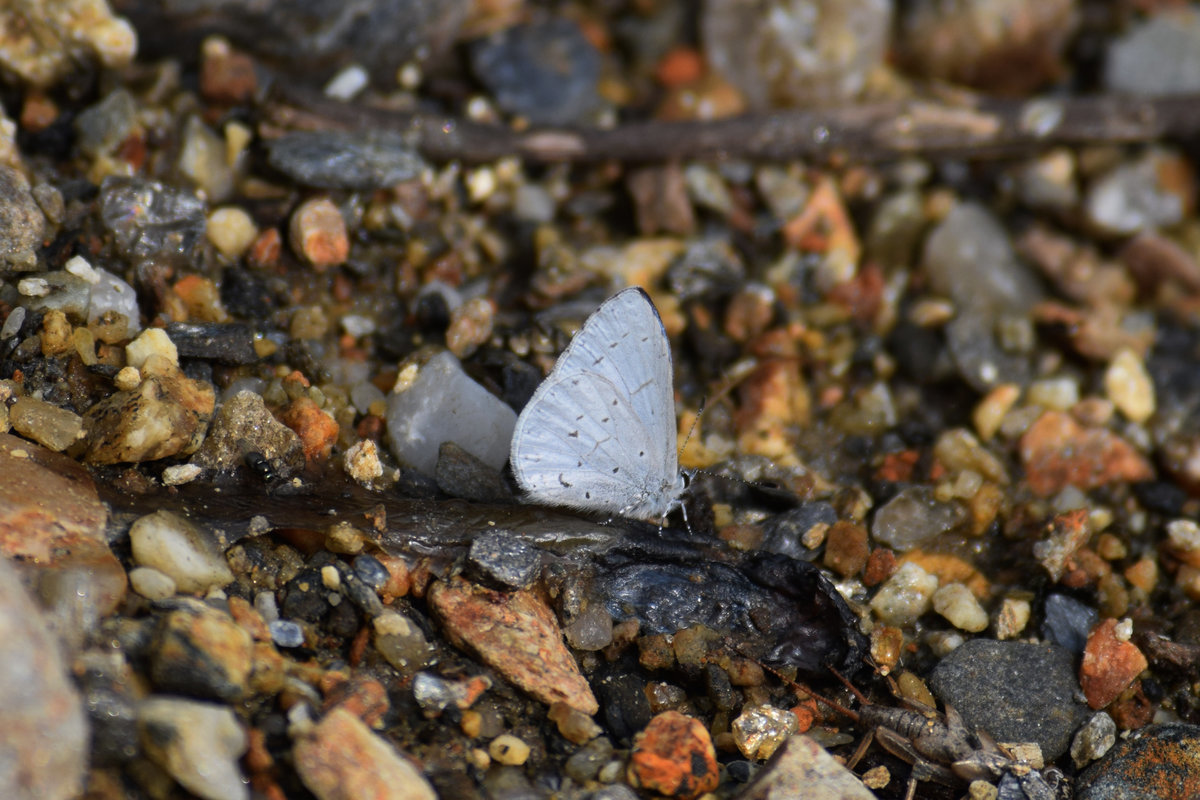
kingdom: Animalia
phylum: Arthropoda
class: Insecta
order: Lepidoptera
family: Lycaenidae
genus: Udara
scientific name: Udara dilectus
